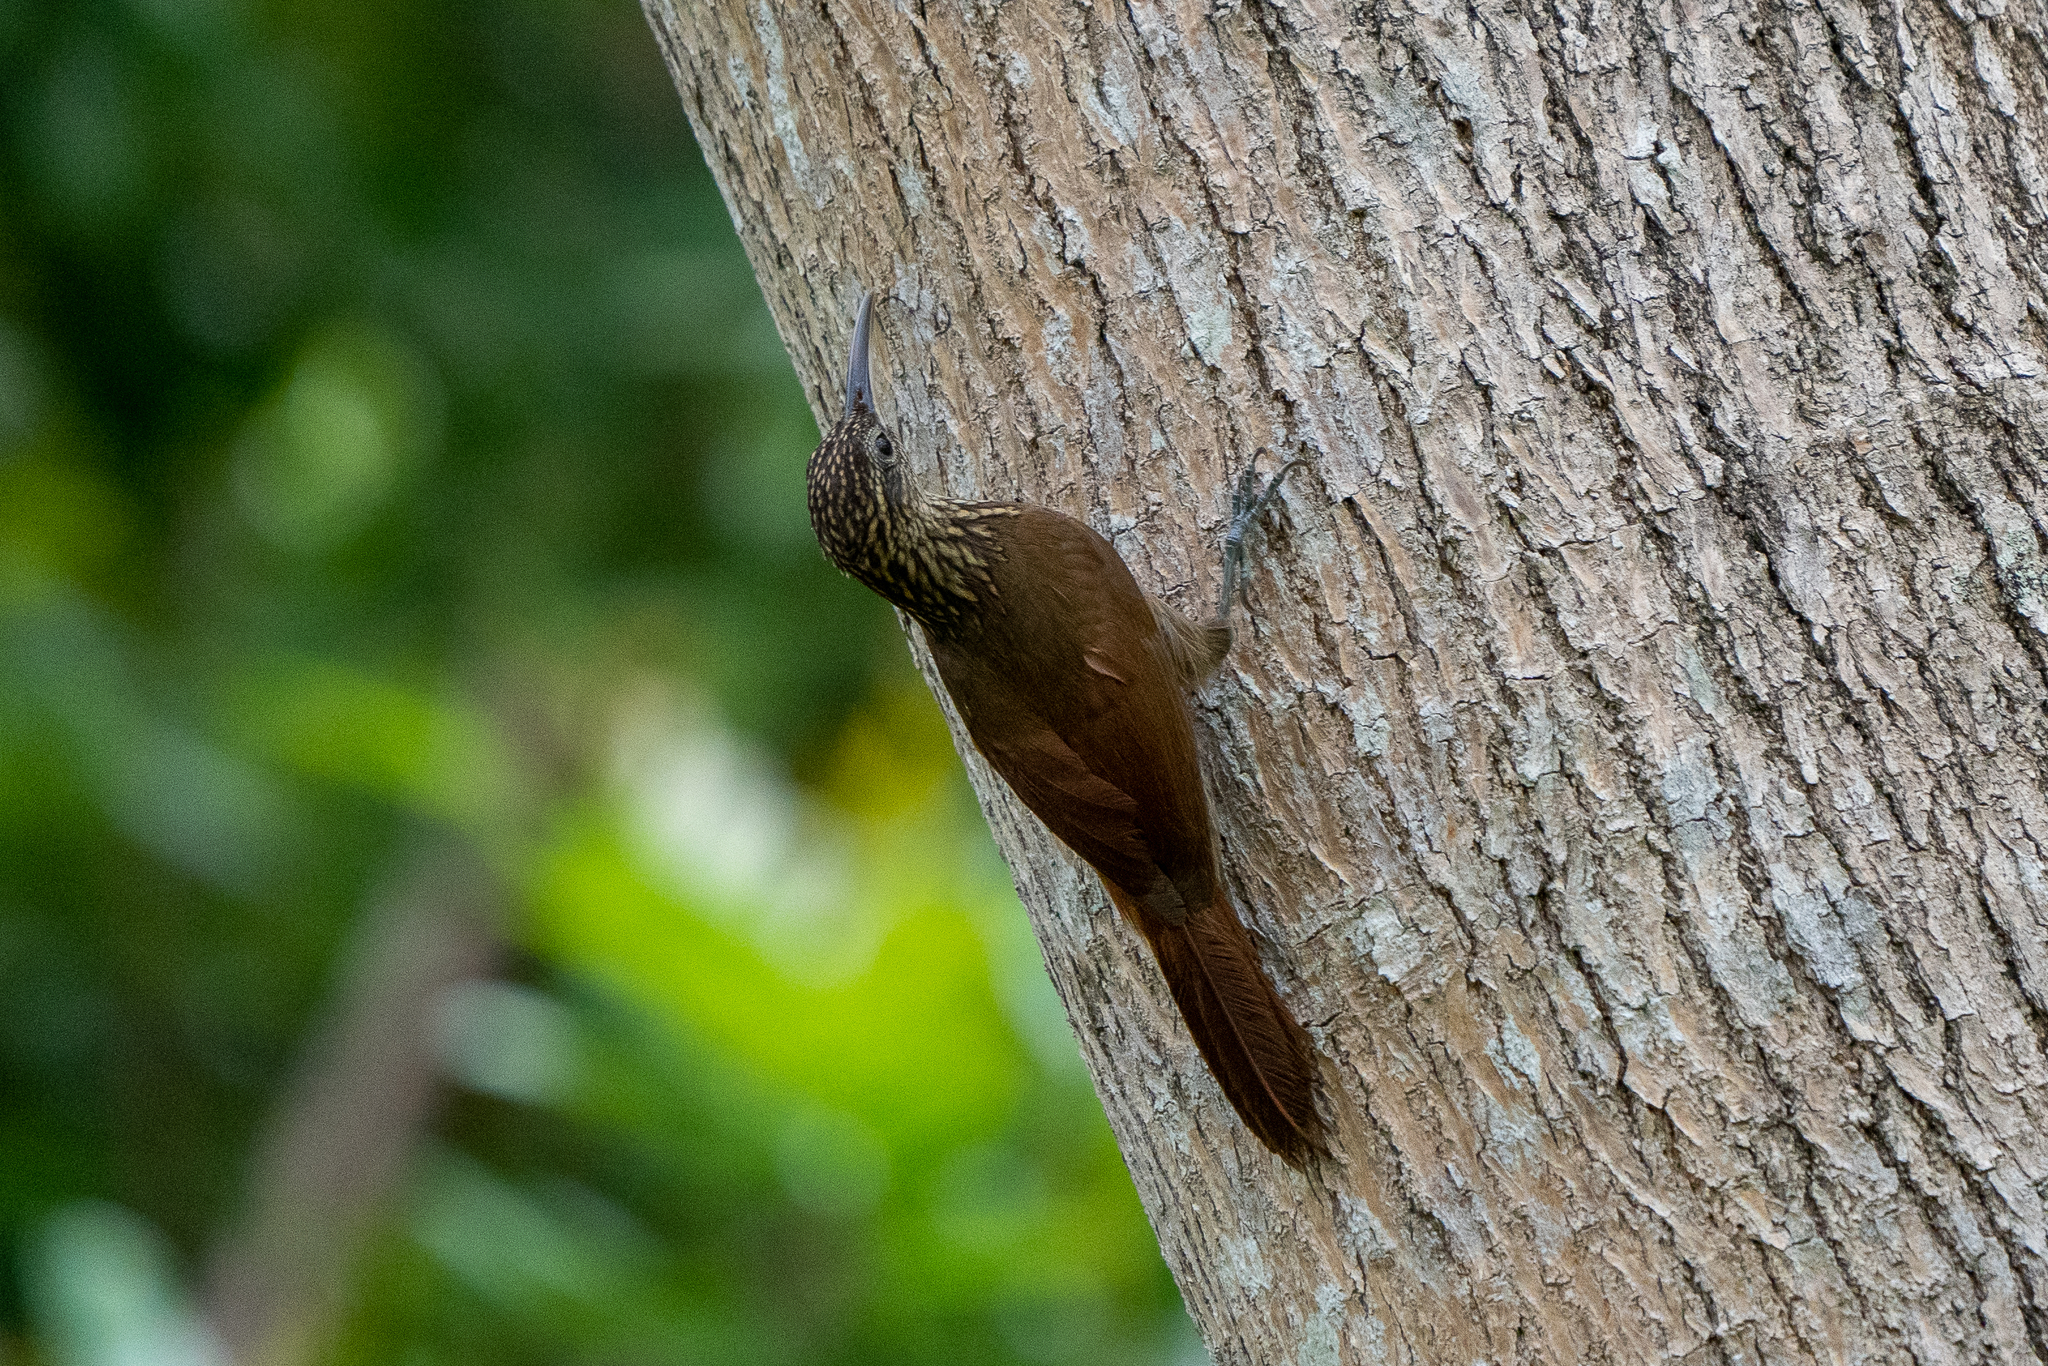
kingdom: Animalia
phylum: Chordata
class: Aves
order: Passeriformes
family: Furnariidae
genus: Xiphorhynchus
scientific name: Xiphorhynchus susurrans
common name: Cocoa woodcreeper
